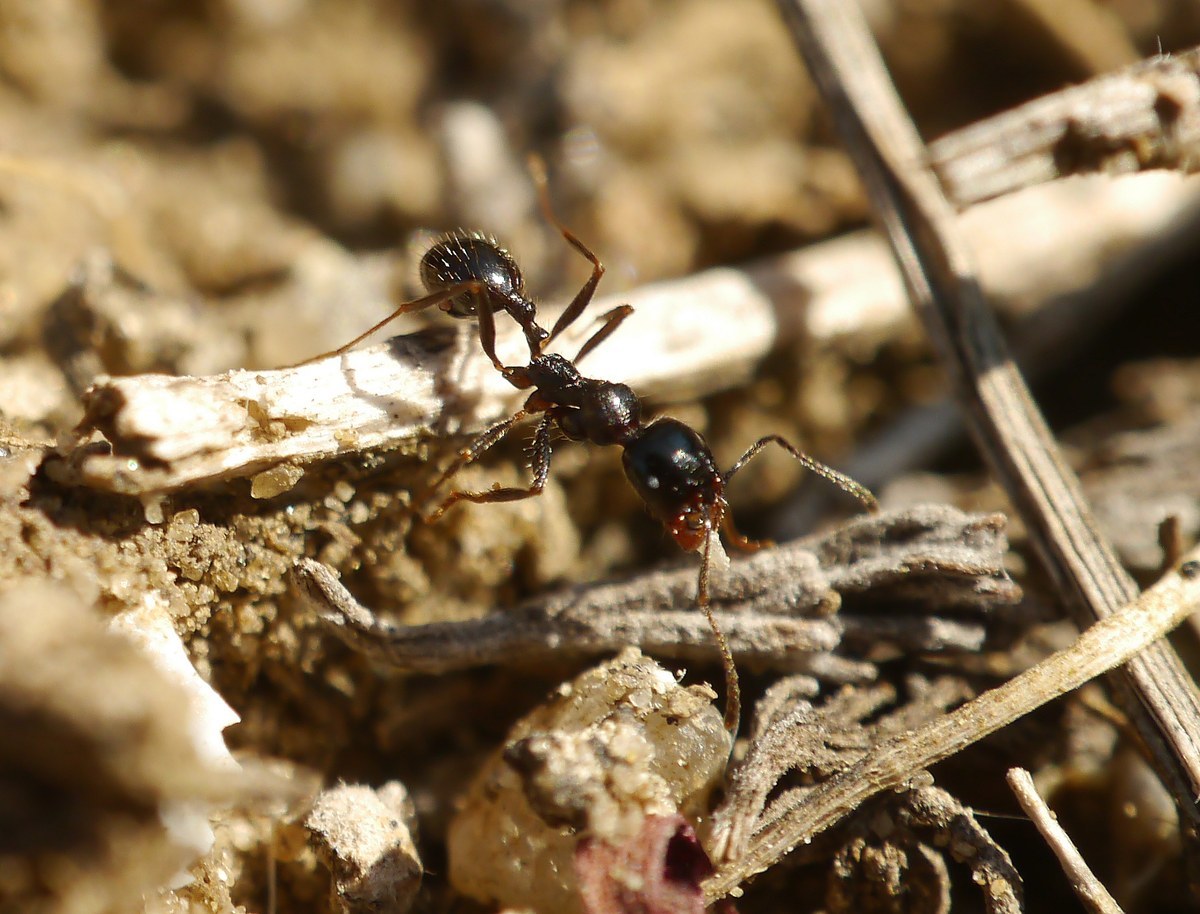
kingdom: Animalia
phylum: Arthropoda
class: Insecta
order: Hymenoptera
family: Formicidae
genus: Messor
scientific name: Messor muticus
